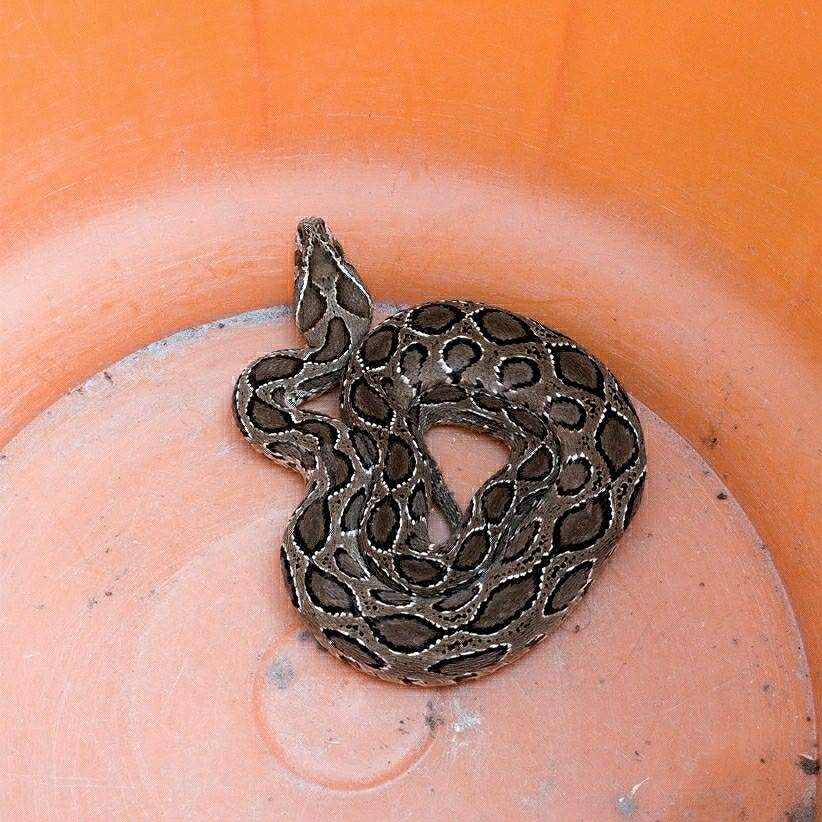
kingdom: Animalia
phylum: Chordata
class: Squamata
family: Viperidae
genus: Daboia
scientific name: Daboia russelii
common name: Western russel’s viper
